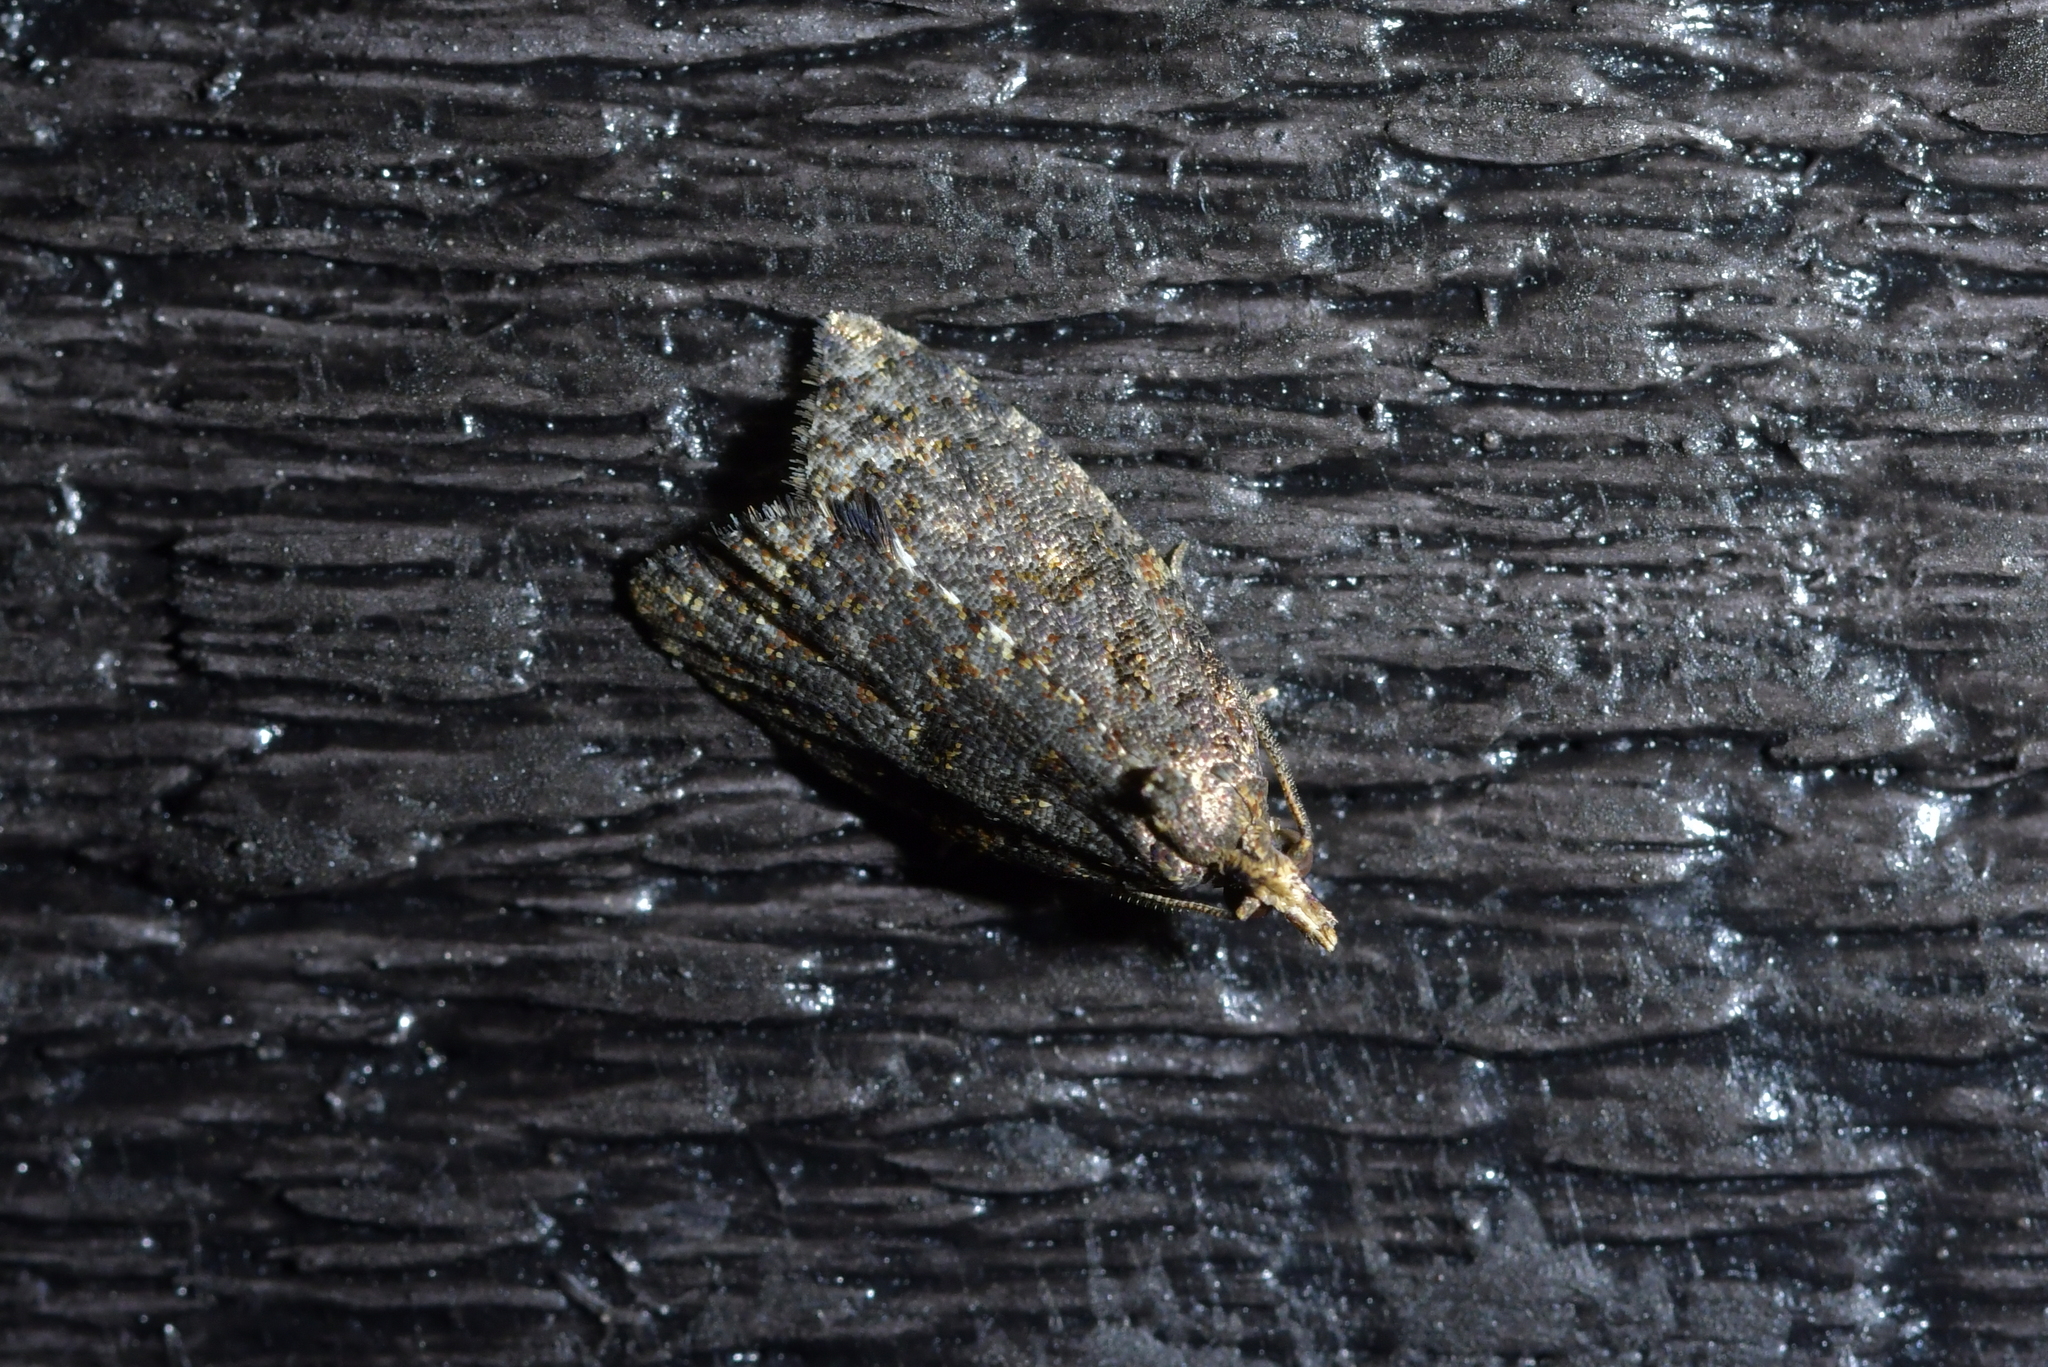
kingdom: Animalia
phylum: Arthropoda
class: Insecta
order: Lepidoptera
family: Tortricidae
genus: Capua
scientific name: Capua intractana
